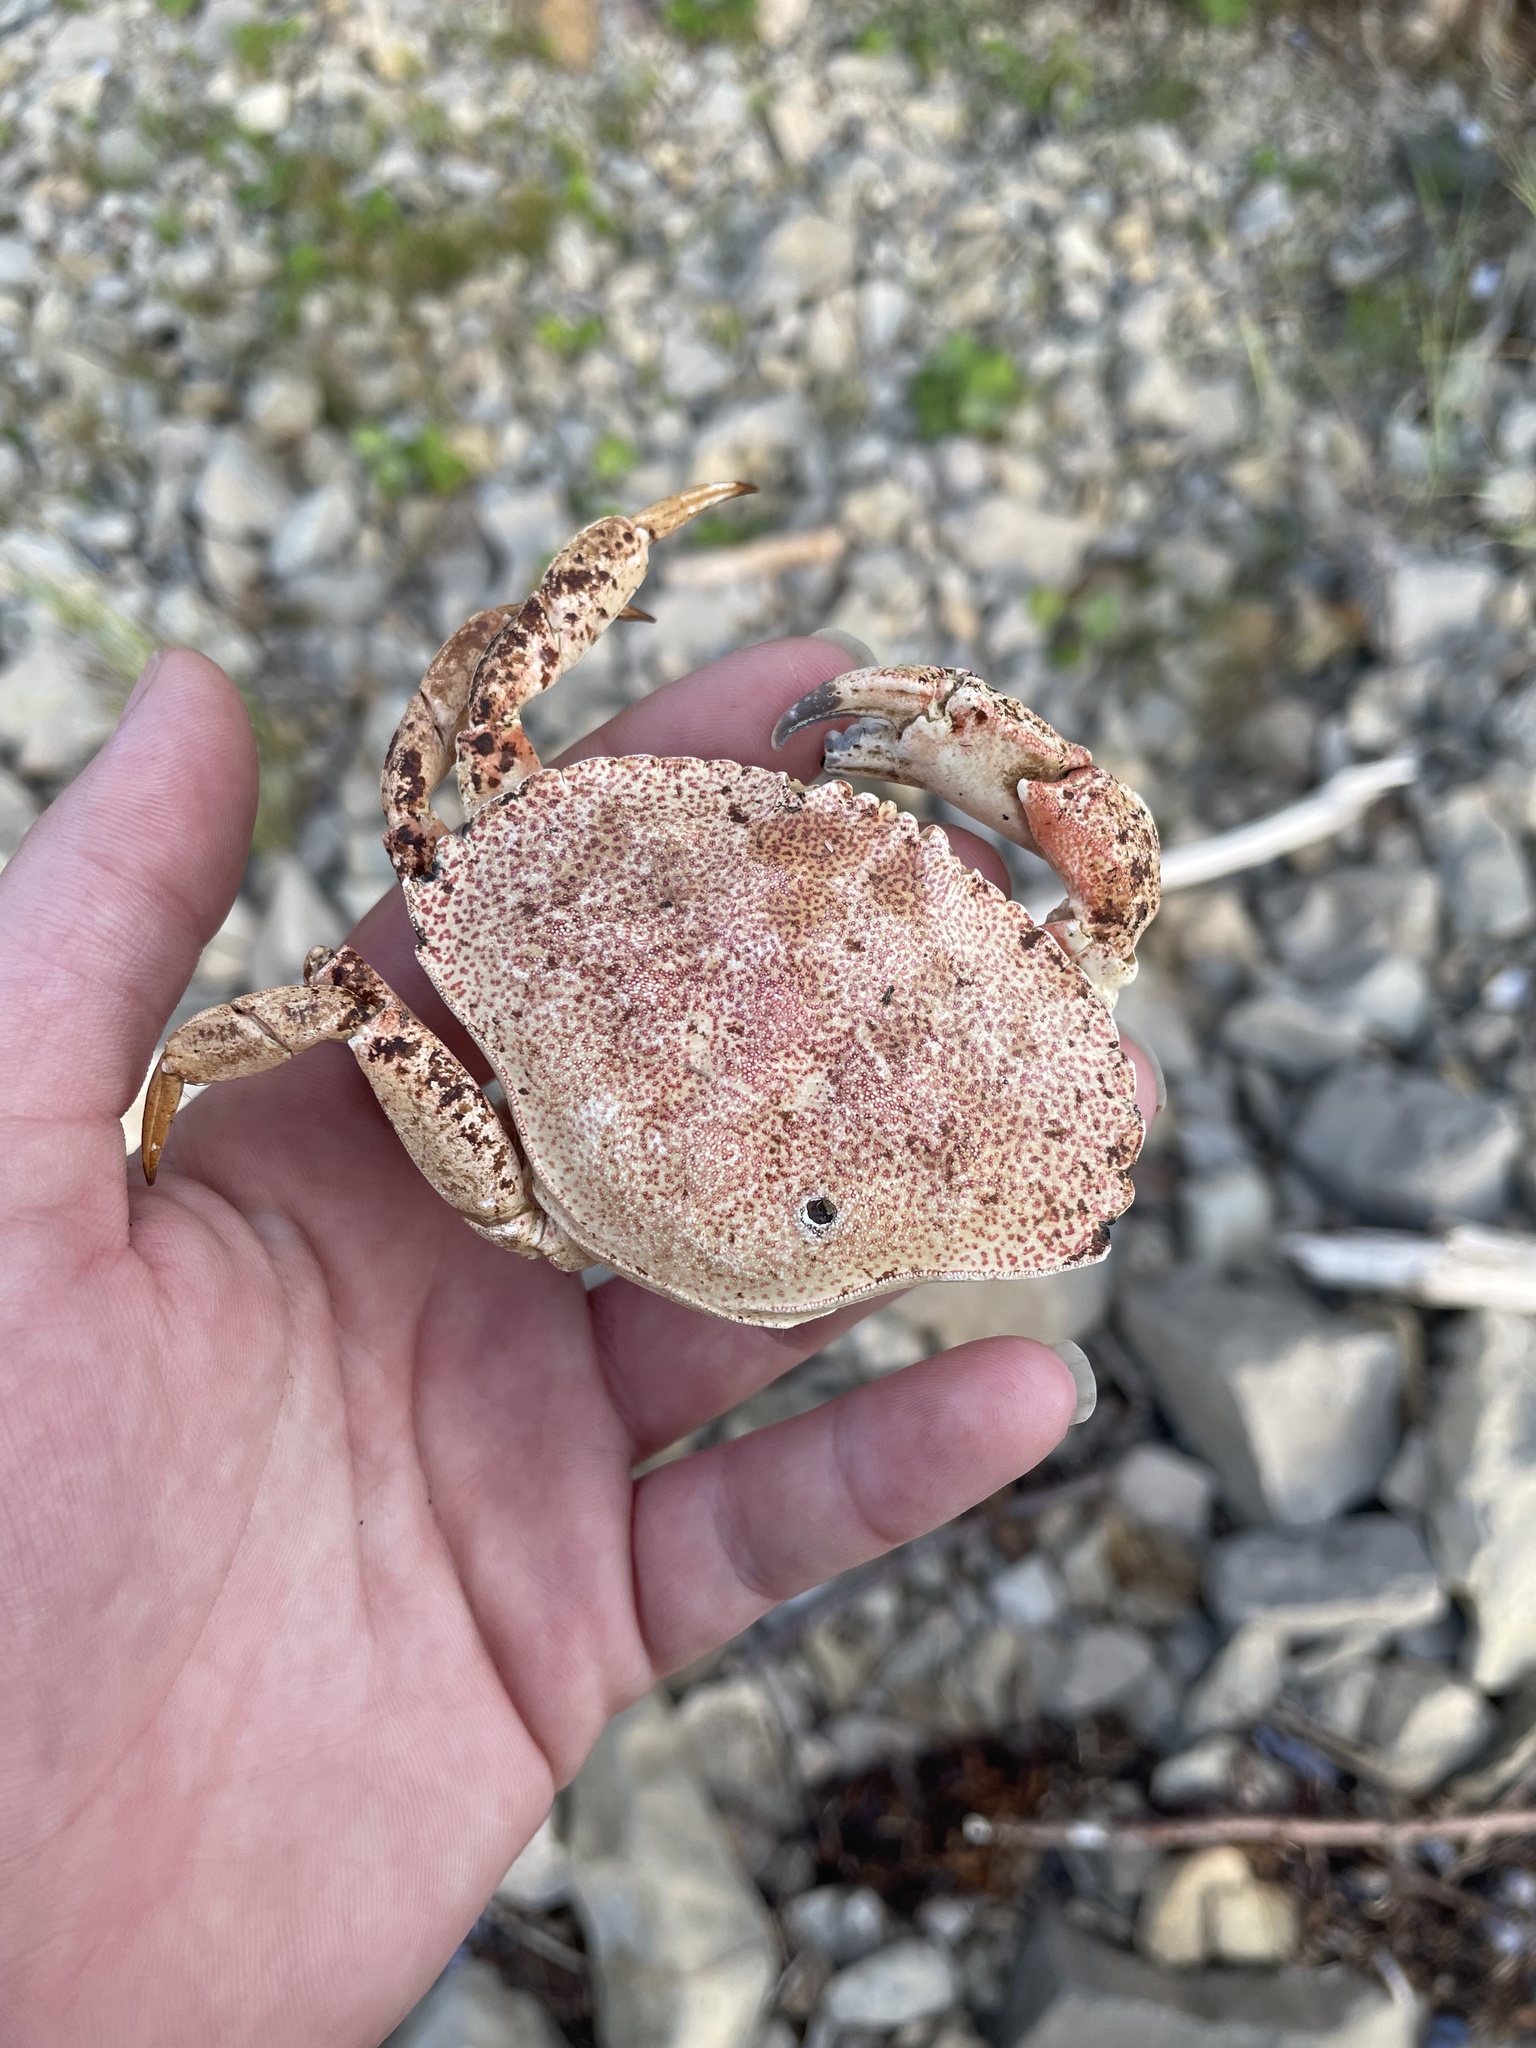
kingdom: Animalia
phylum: Arthropoda
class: Malacostraca
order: Decapoda
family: Cancridae
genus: Cancer
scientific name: Cancer irroratus
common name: Atlantic rock crab
